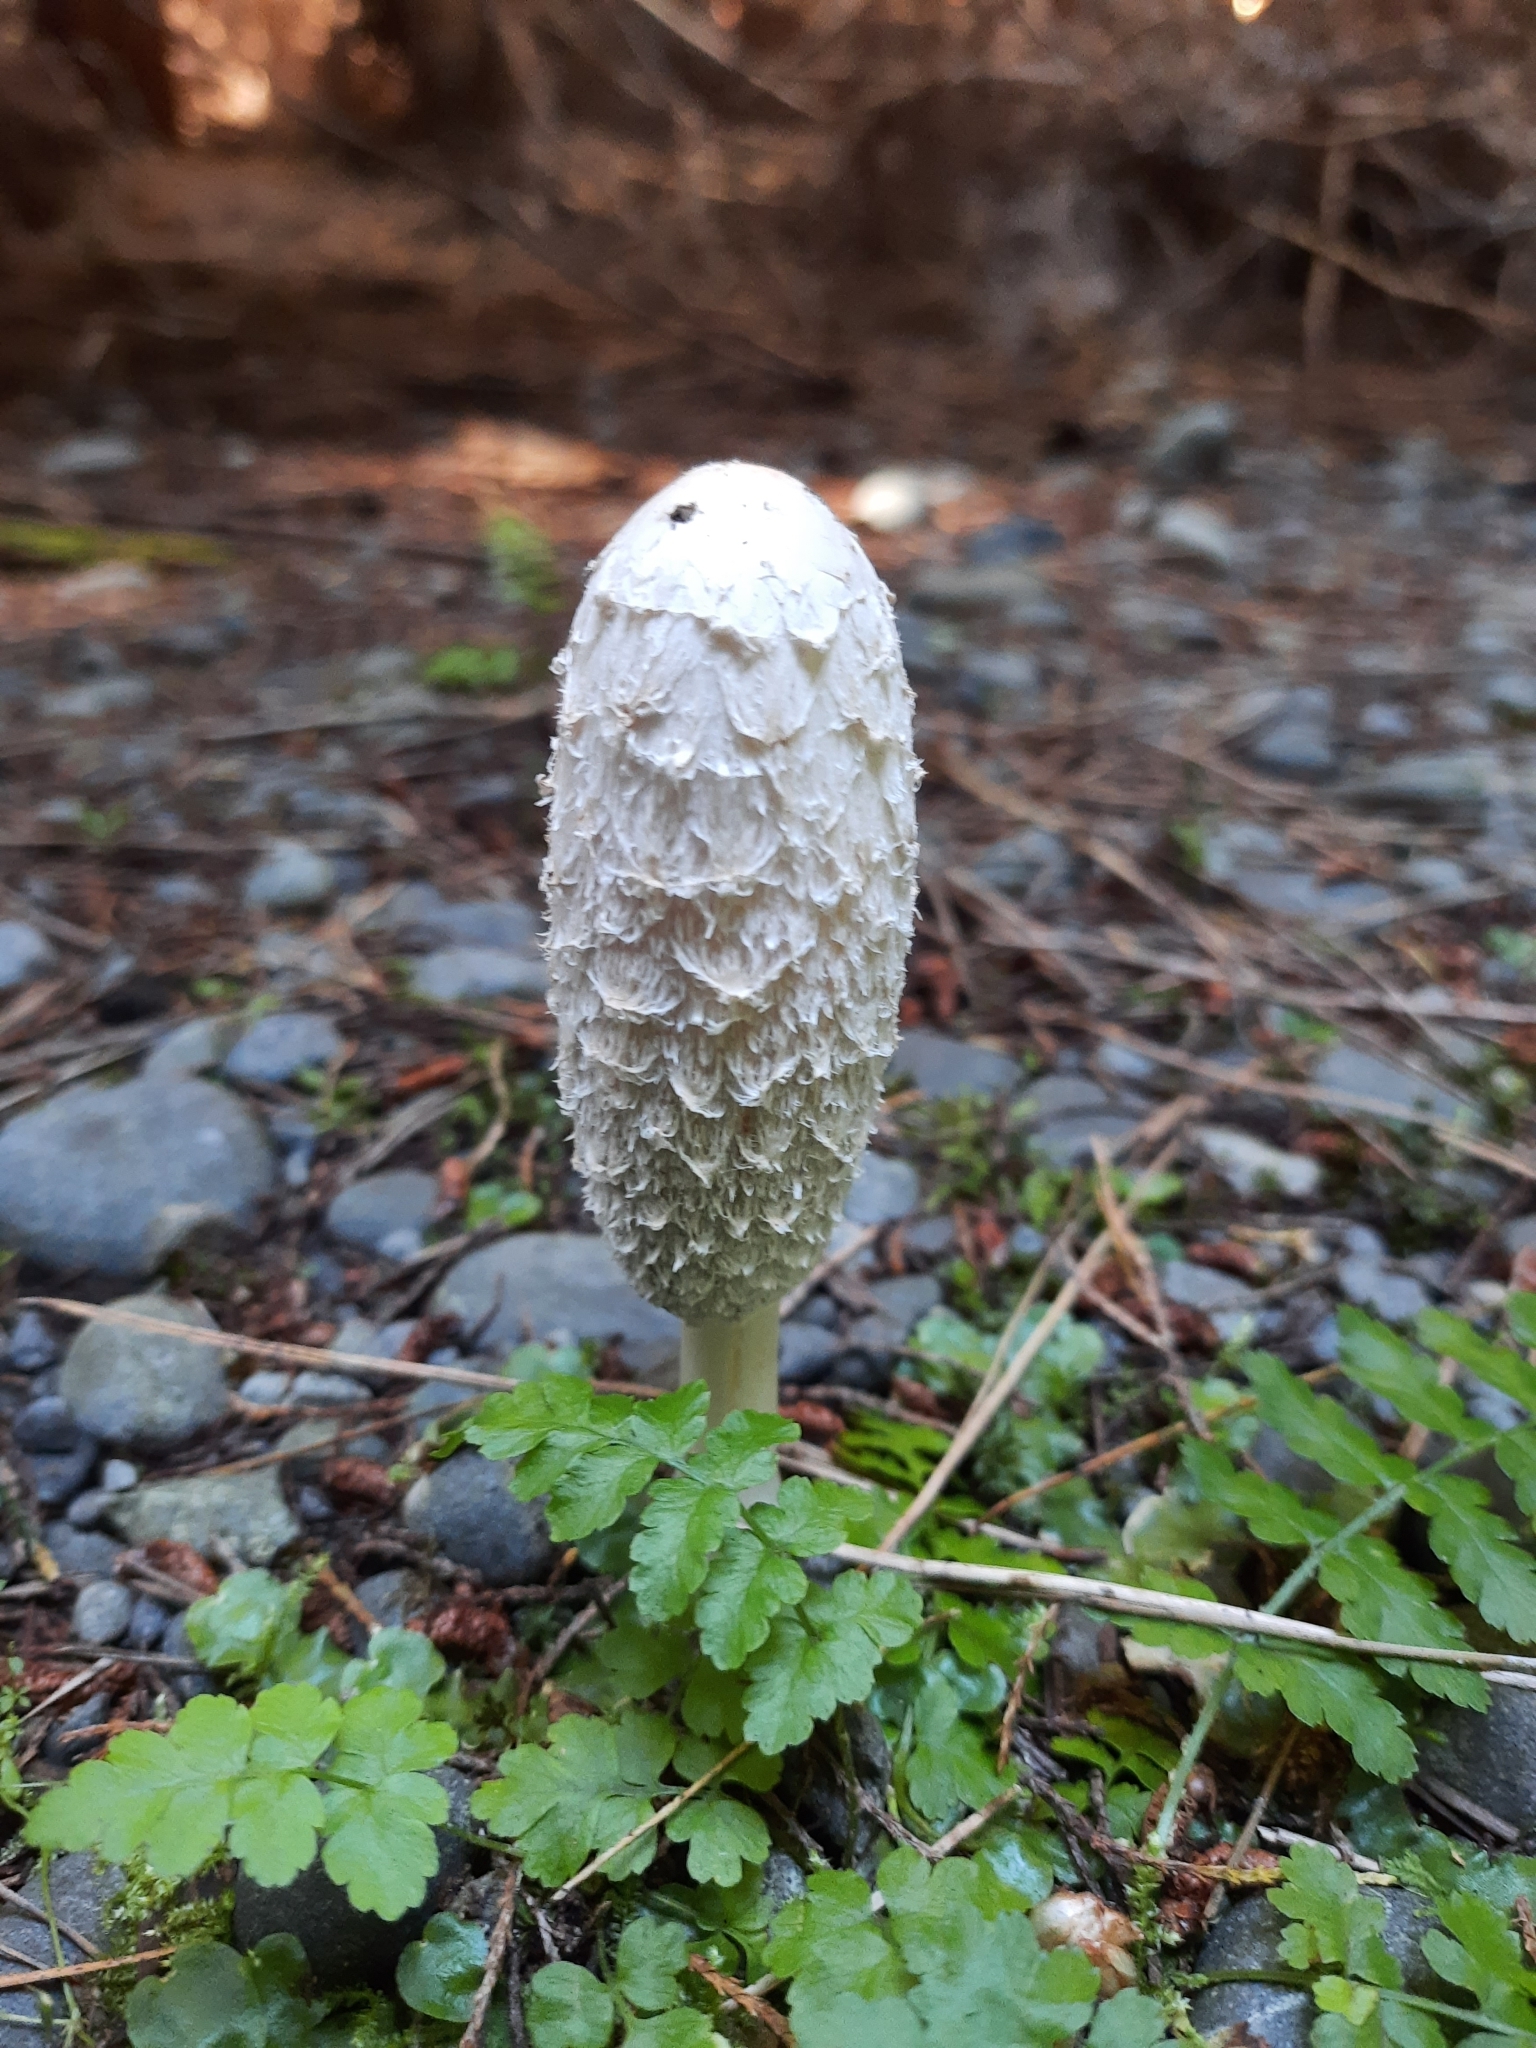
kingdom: Fungi
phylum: Basidiomycota
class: Agaricomycetes
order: Agaricales
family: Agaricaceae
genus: Coprinus
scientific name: Coprinus comatus
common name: Lawyer's wig
